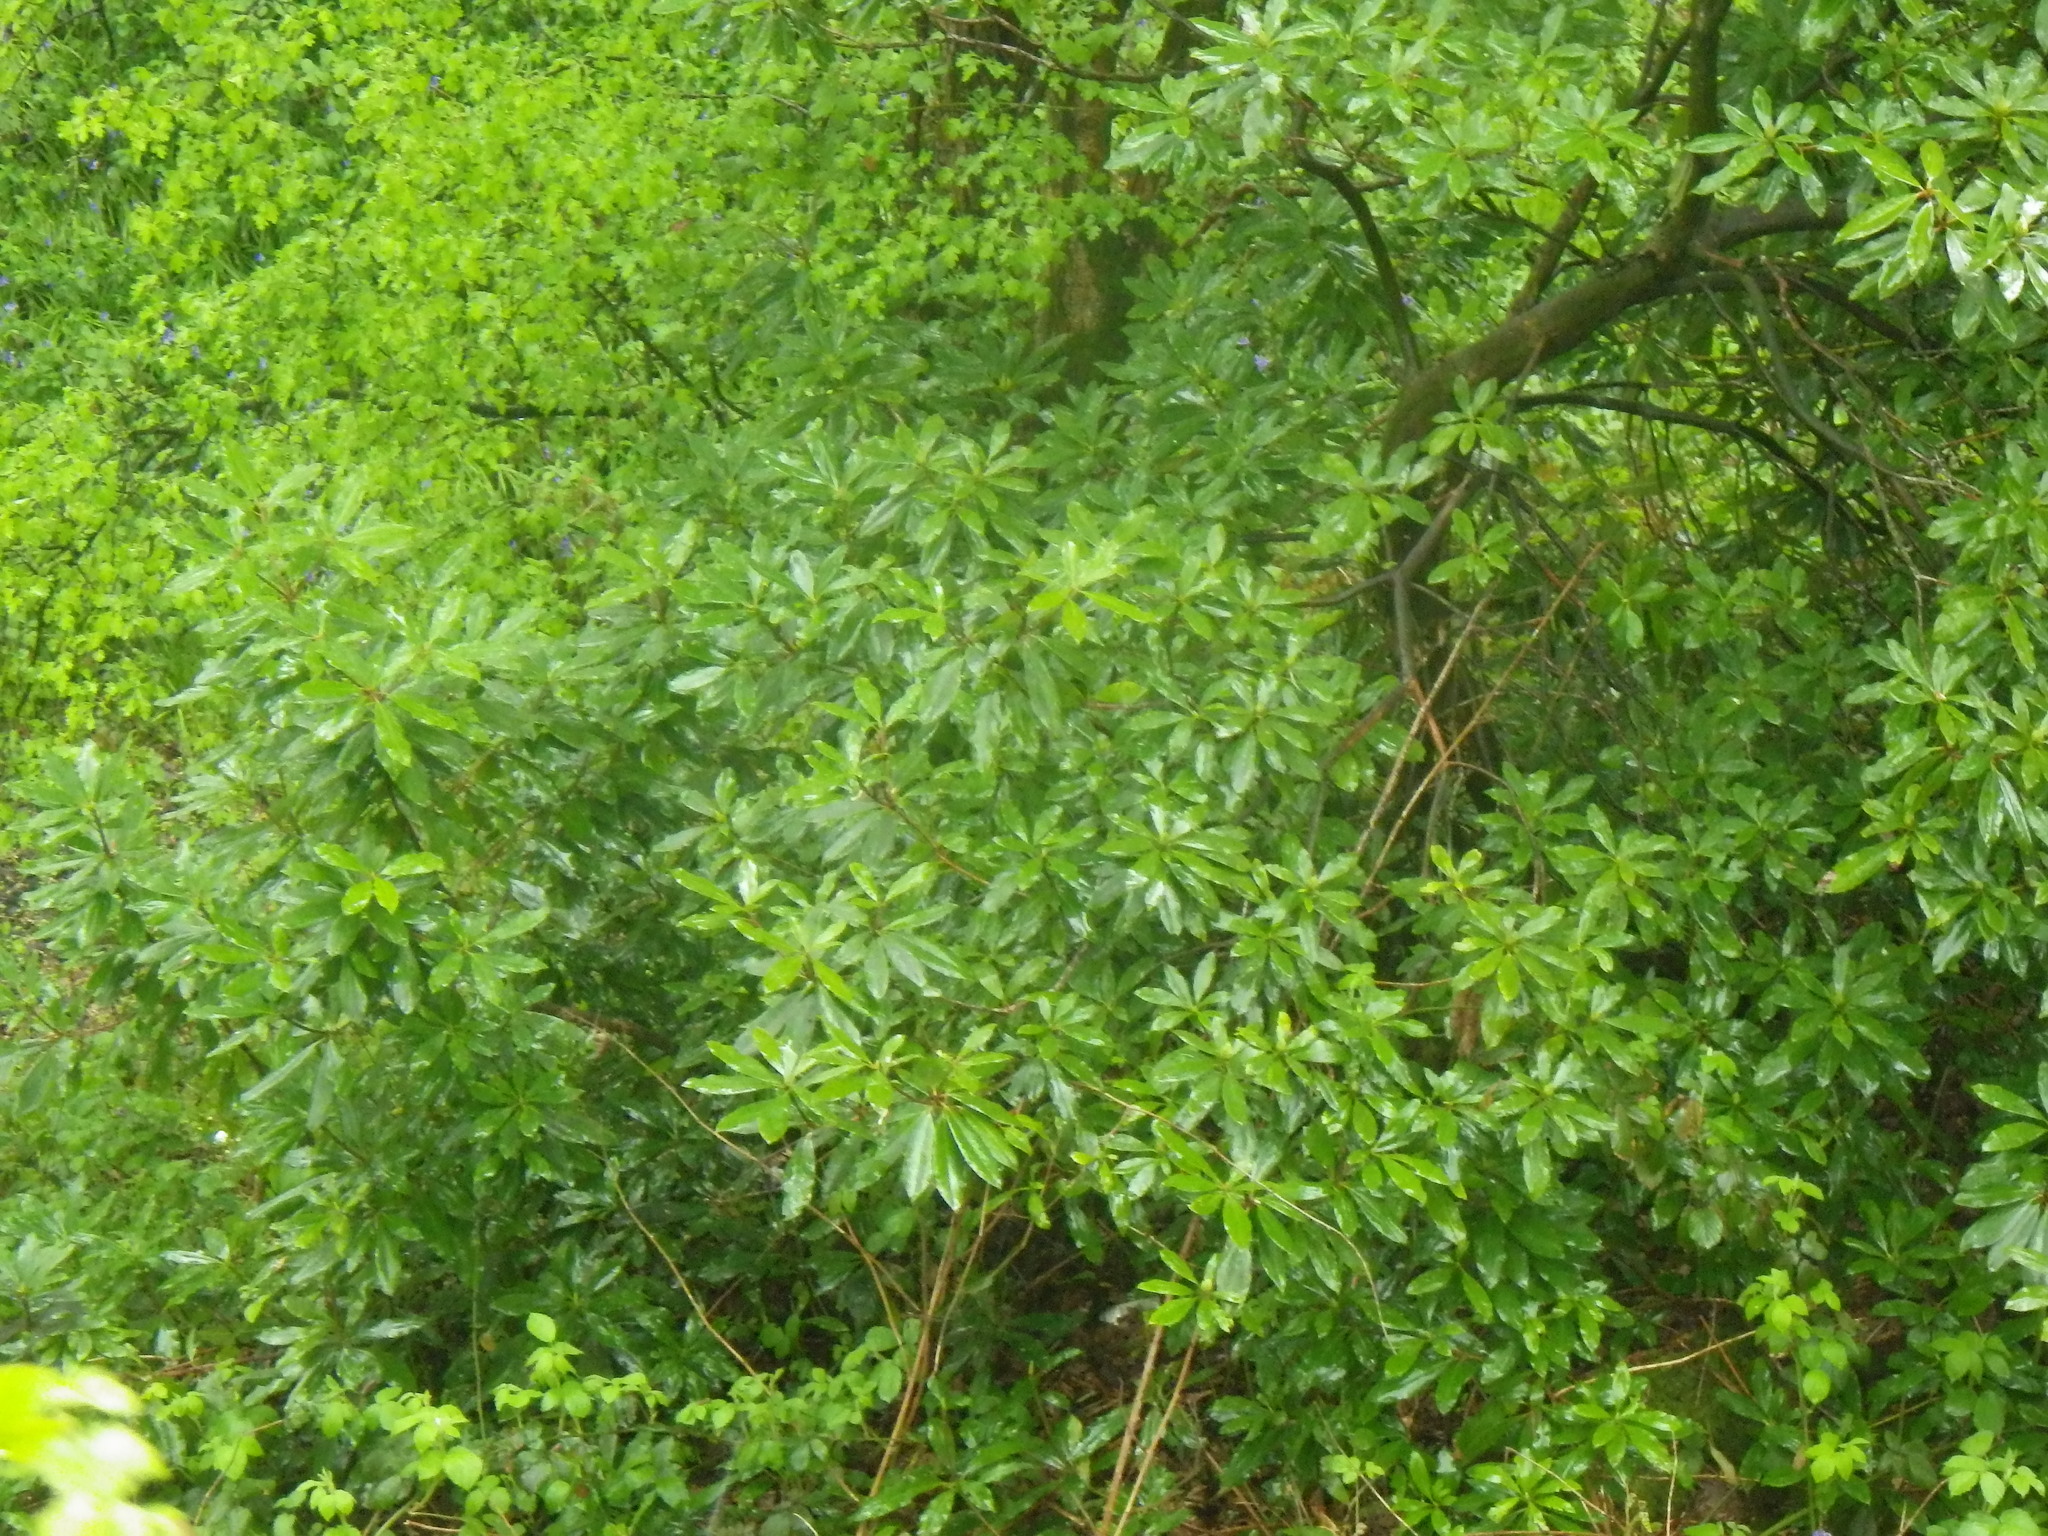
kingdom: Plantae
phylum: Tracheophyta
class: Magnoliopsida
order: Ericales
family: Ericaceae
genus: Rhododendron
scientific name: Rhododendron ponticum
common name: Rhododendron
